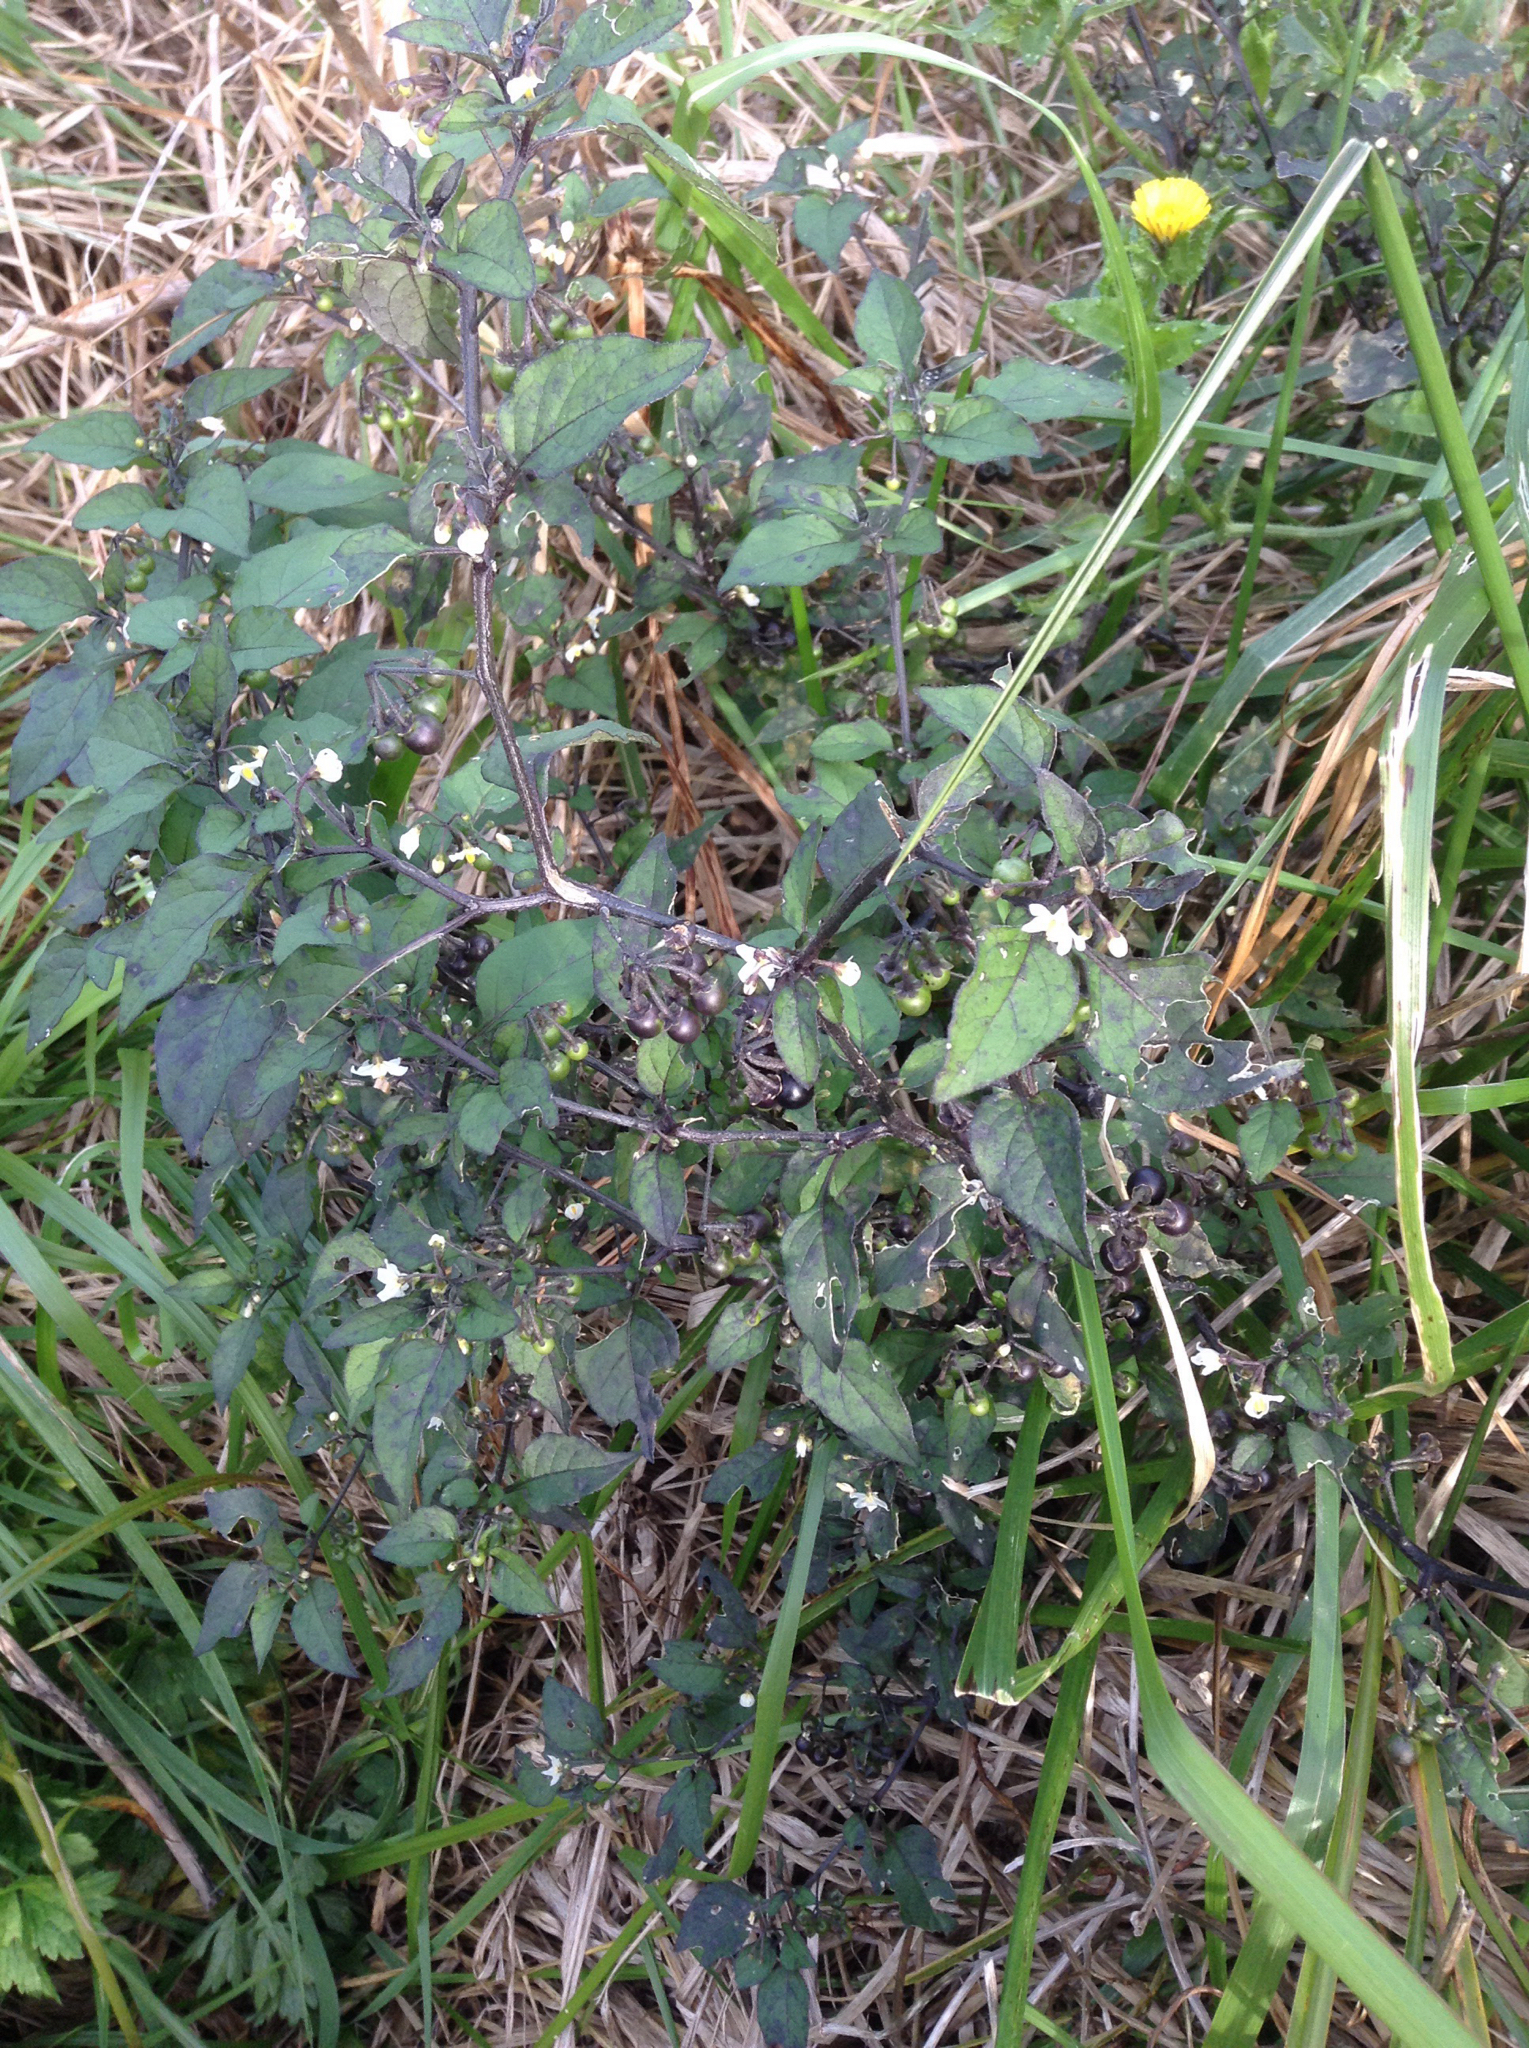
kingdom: Plantae
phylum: Tracheophyta
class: Magnoliopsida
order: Solanales
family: Solanaceae
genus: Solanum
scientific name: Solanum nigrum
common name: Black nightshade
